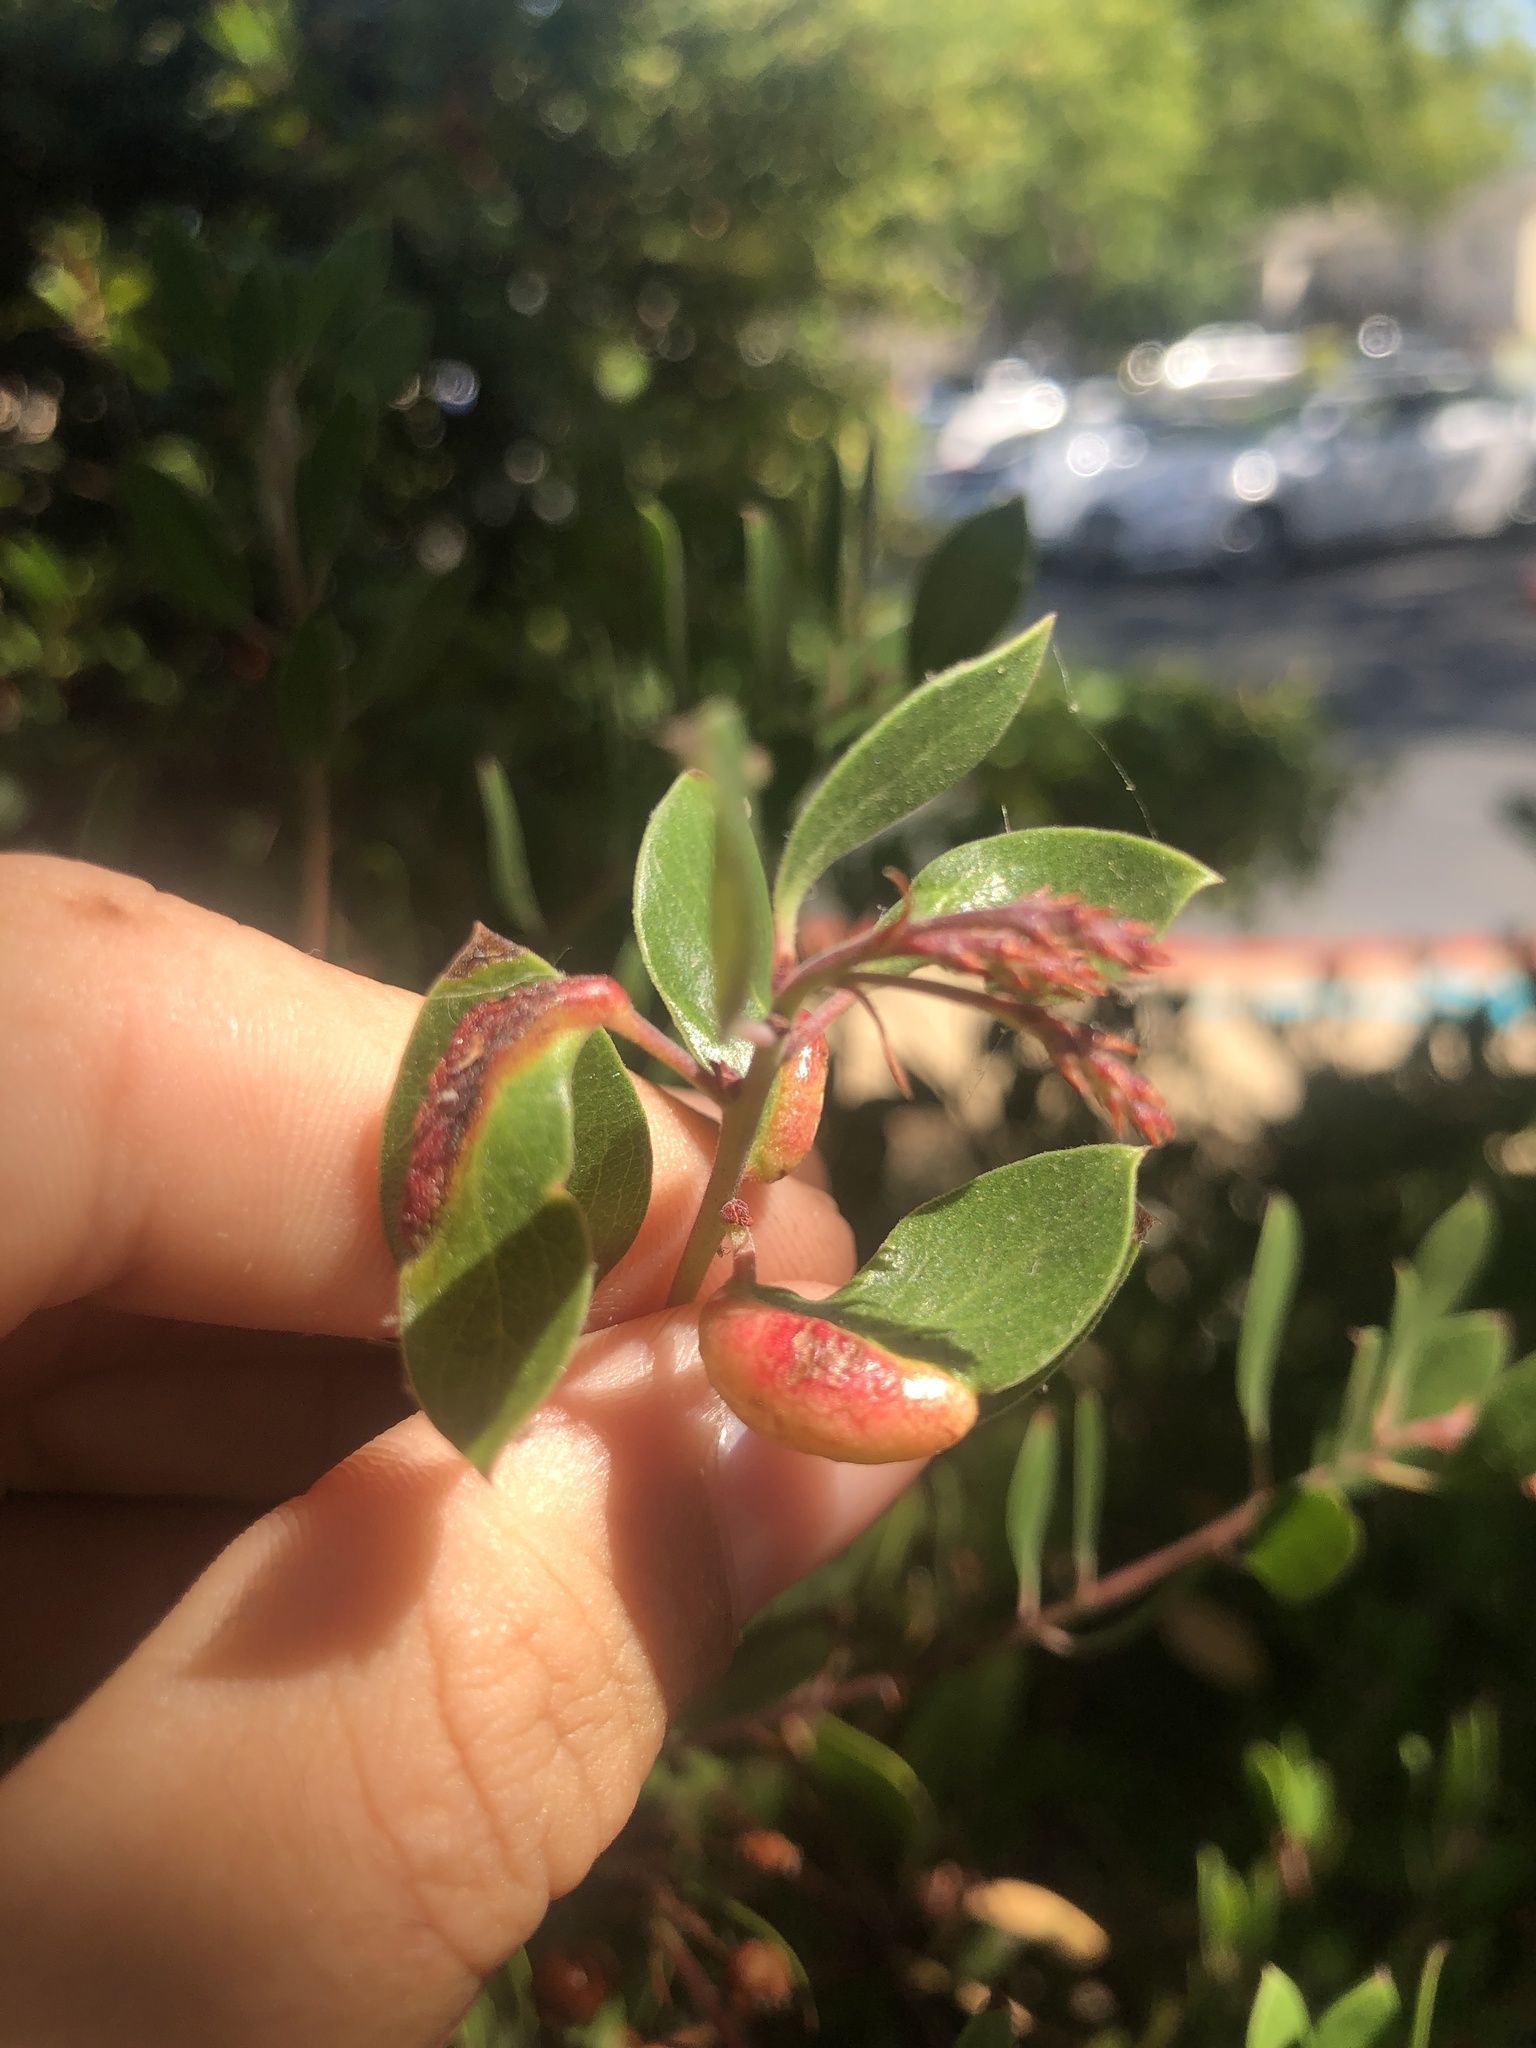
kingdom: Animalia
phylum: Arthropoda
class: Insecta
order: Hemiptera
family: Aphididae
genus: Tamalia
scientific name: Tamalia coweni
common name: Manzanita leafgall aphid
